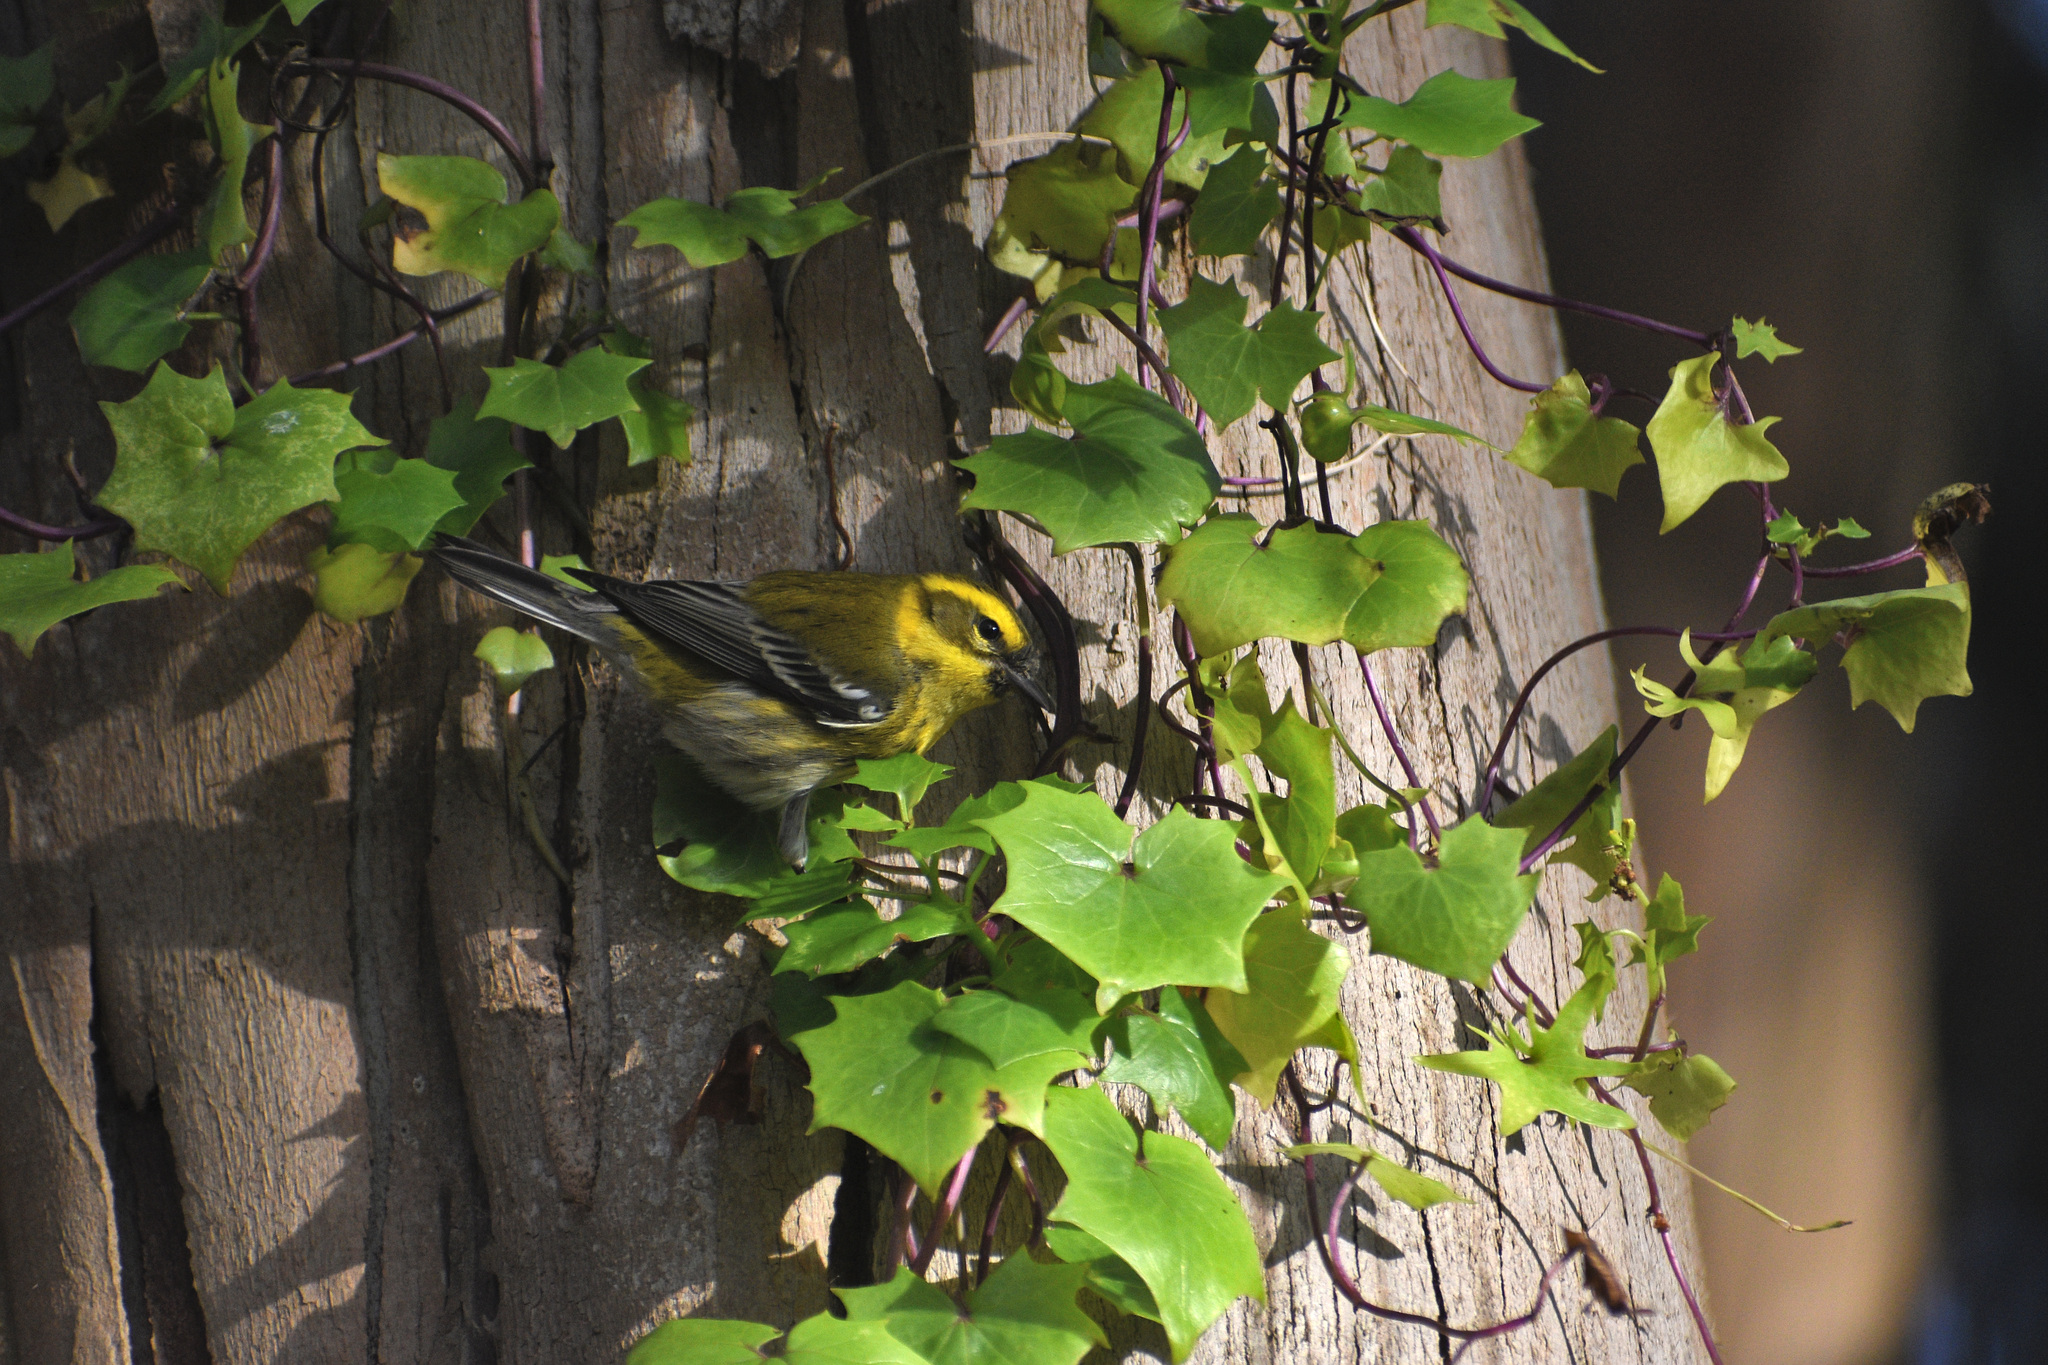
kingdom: Animalia
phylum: Chordata
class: Aves
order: Passeriformes
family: Parulidae
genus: Setophaga
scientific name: Setophaga townsendi
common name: Townsend's warbler
